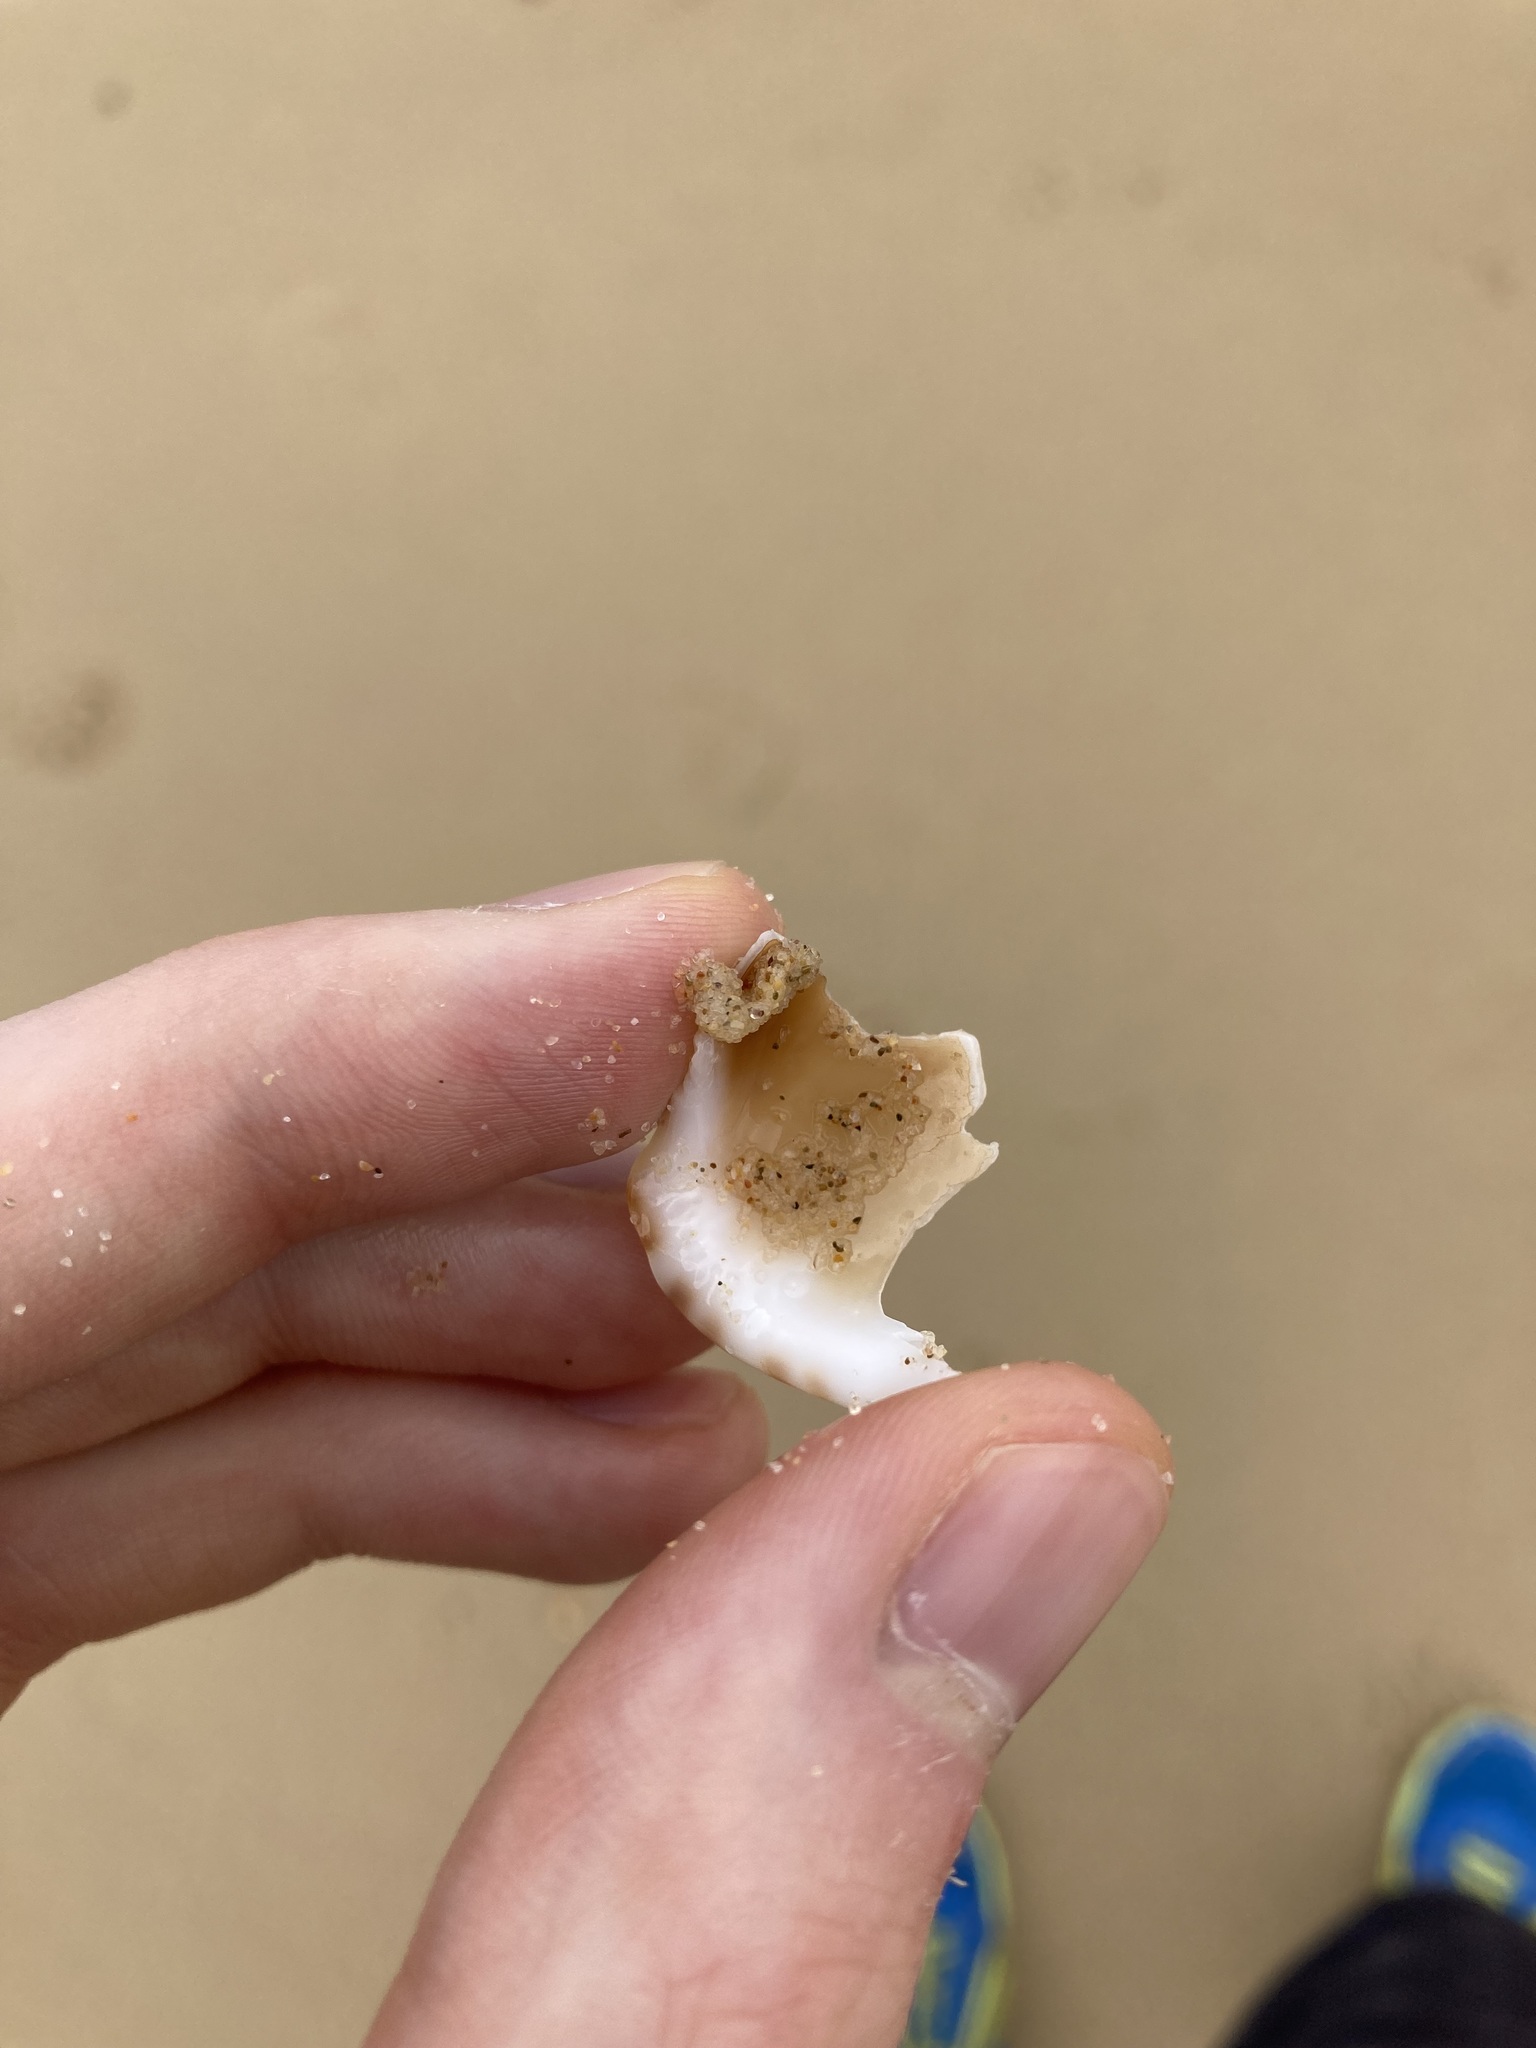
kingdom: Animalia
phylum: Mollusca
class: Gastropoda
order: Littorinimorpha
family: Cassidae
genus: Semicassis
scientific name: Semicassis labiata
